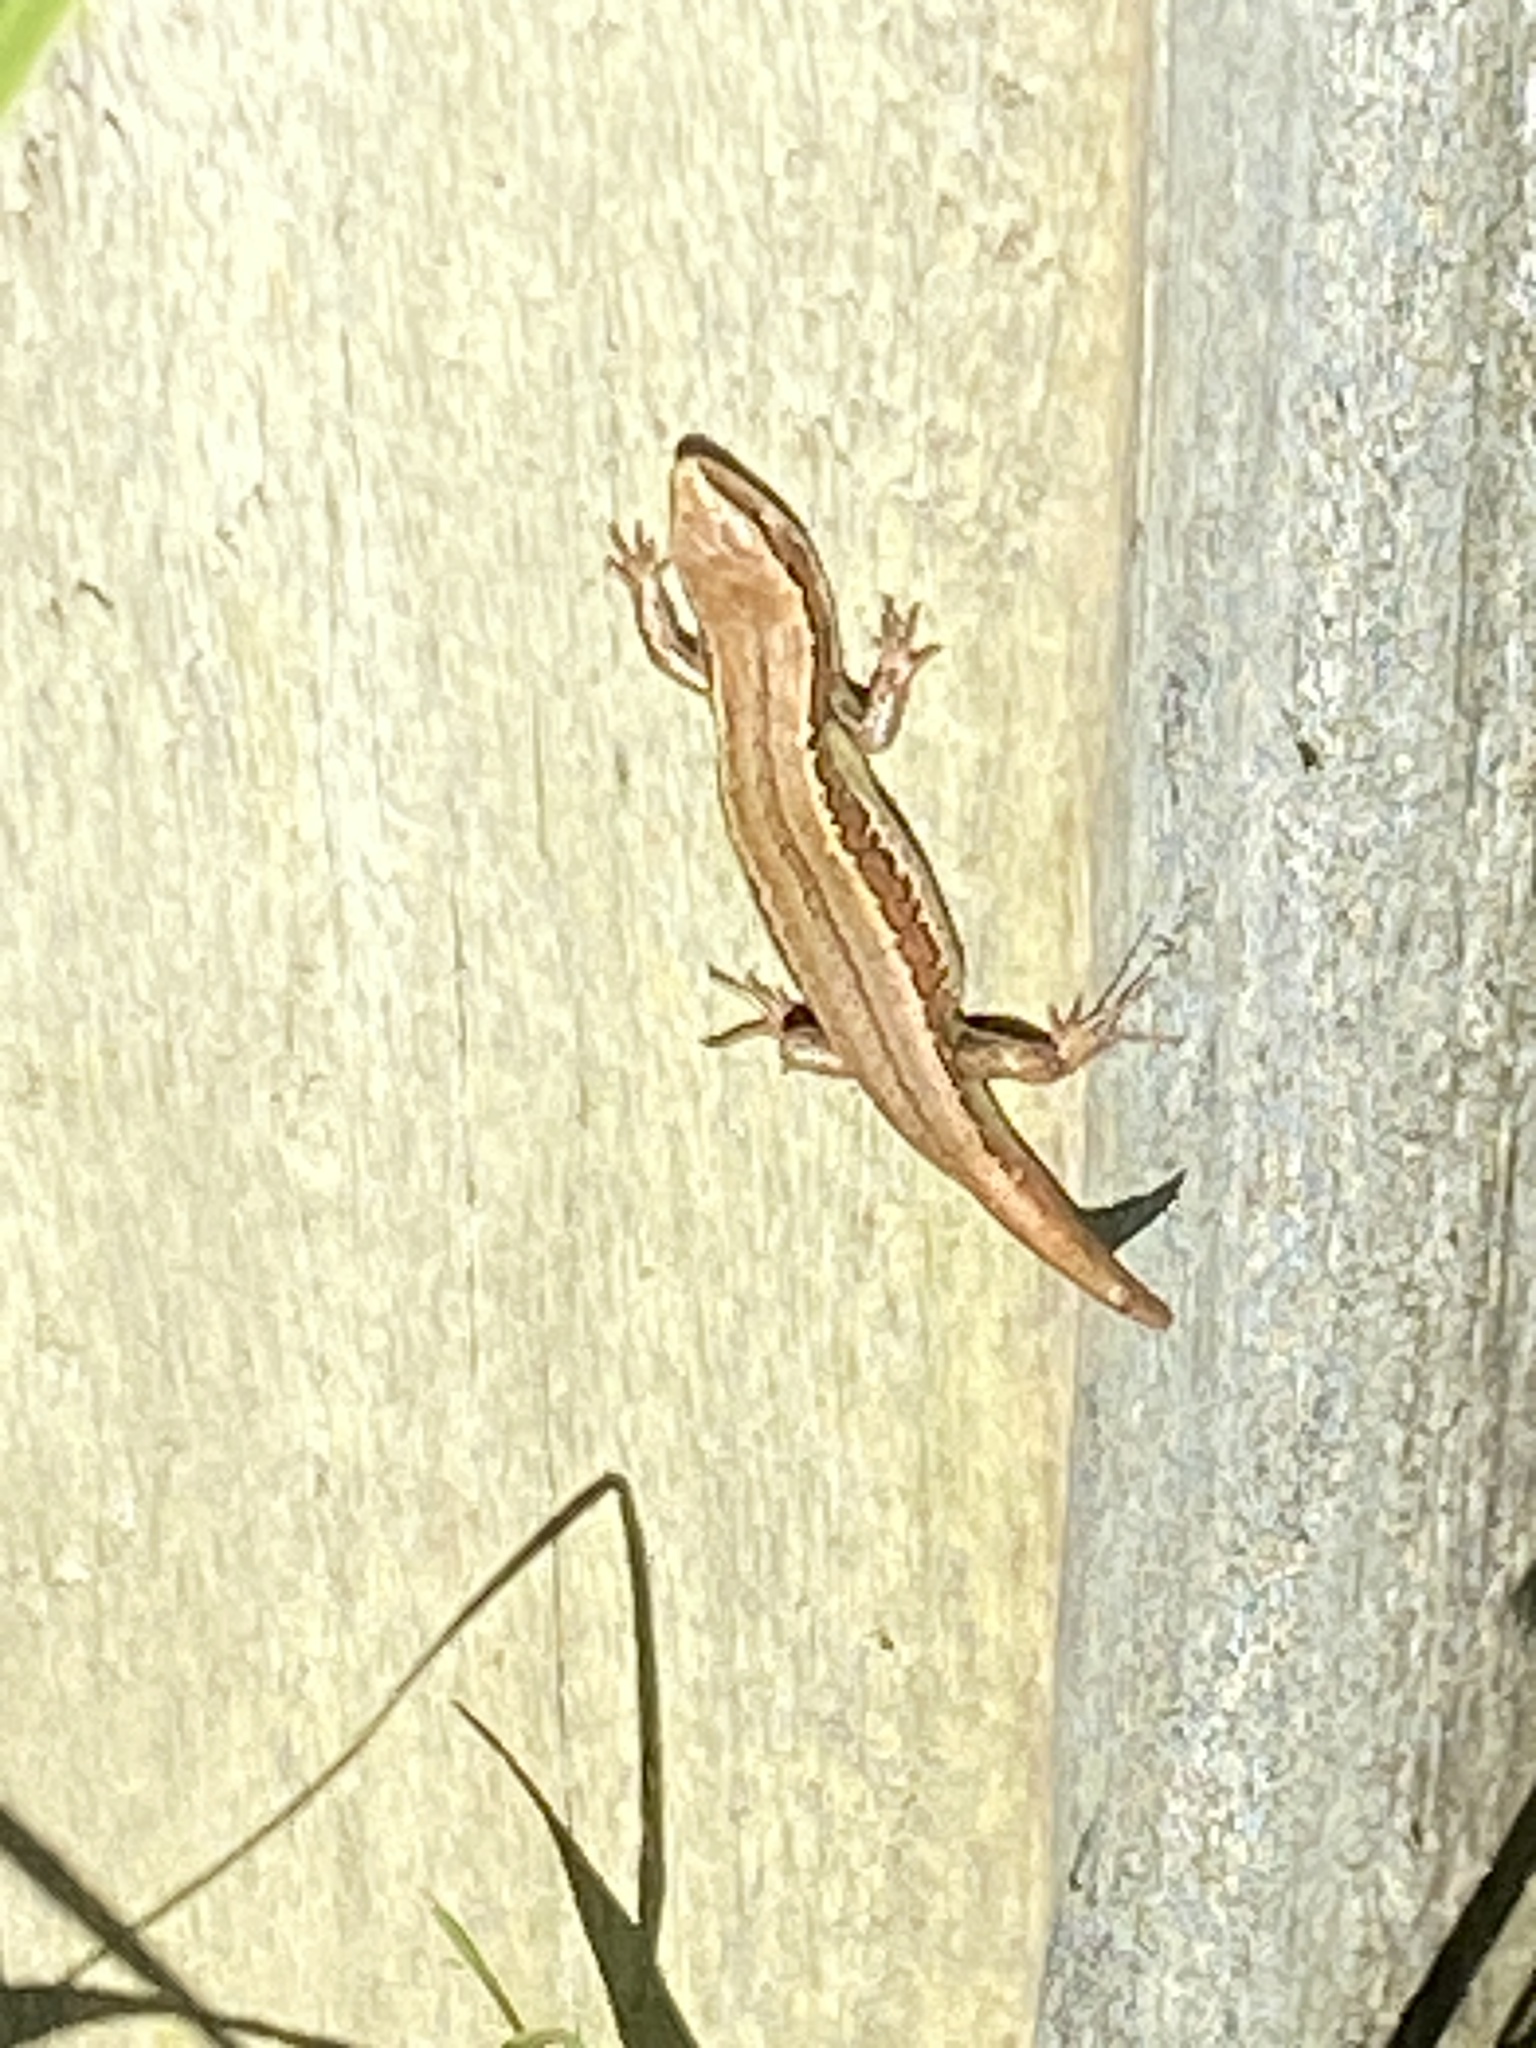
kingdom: Animalia
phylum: Chordata
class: Squamata
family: Scincidae
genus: Oligosoma
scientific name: Oligosoma polychroma
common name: Common new zealand skink
